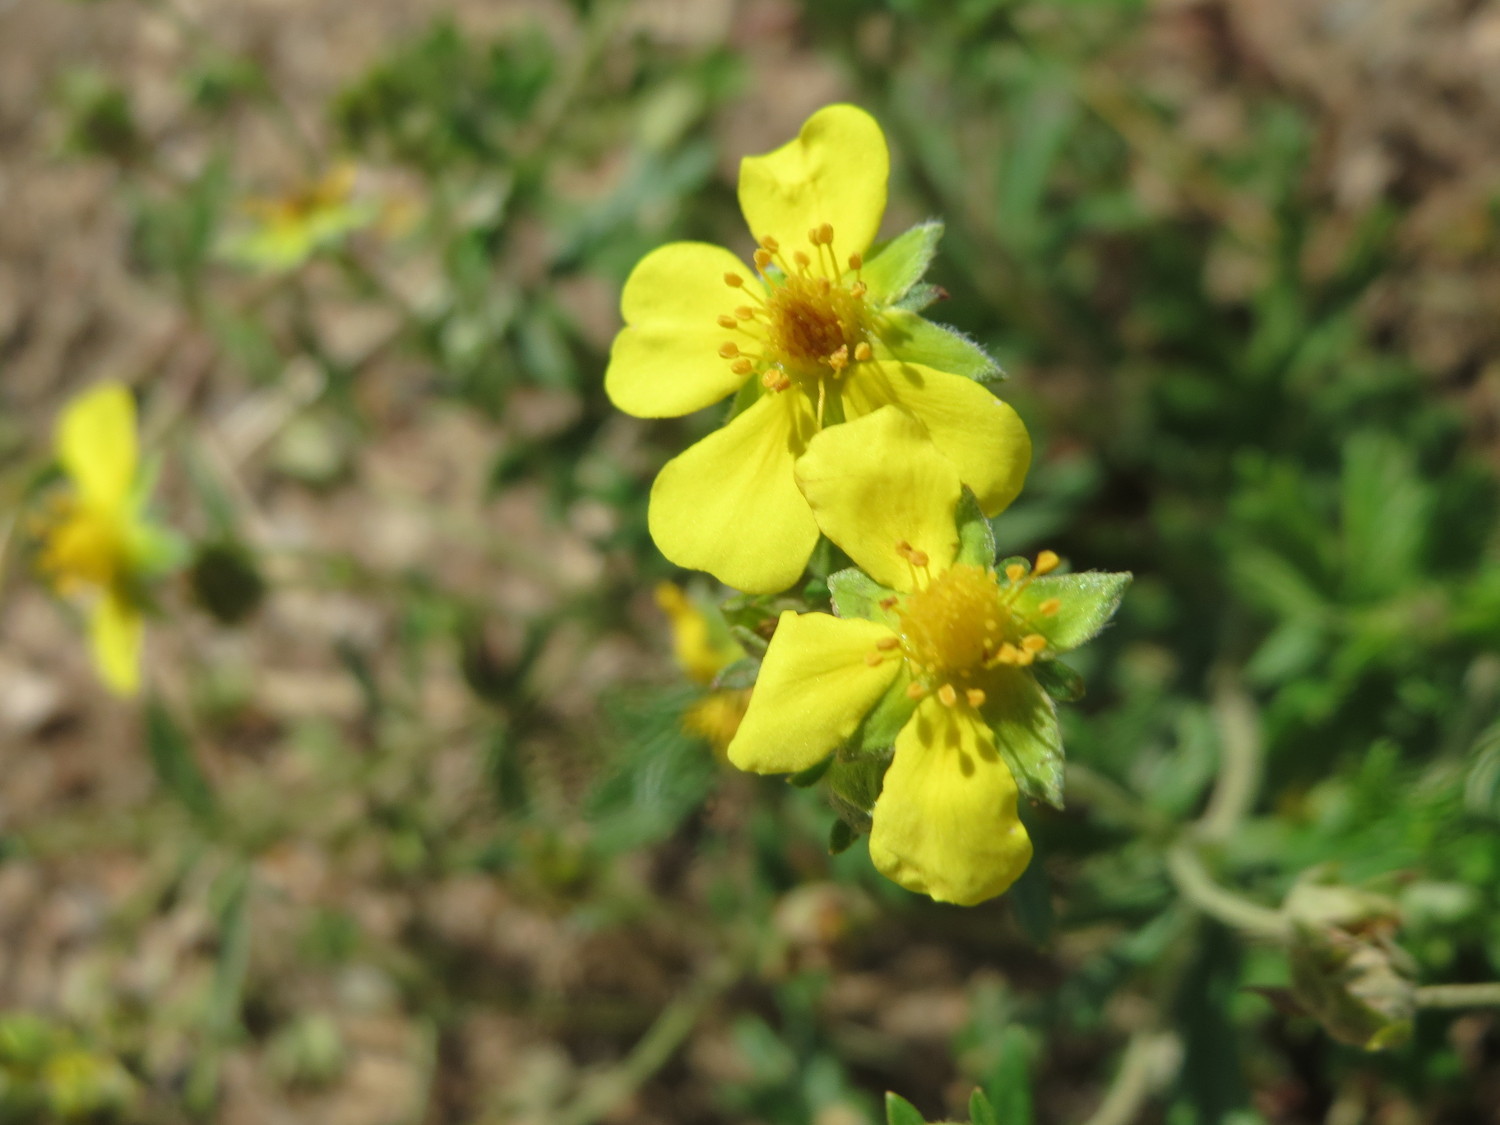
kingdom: Plantae
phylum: Tracheophyta
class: Magnoliopsida
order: Rosales
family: Rosaceae
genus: Potentilla
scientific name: Potentilla argentea
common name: Hoary cinquefoil
